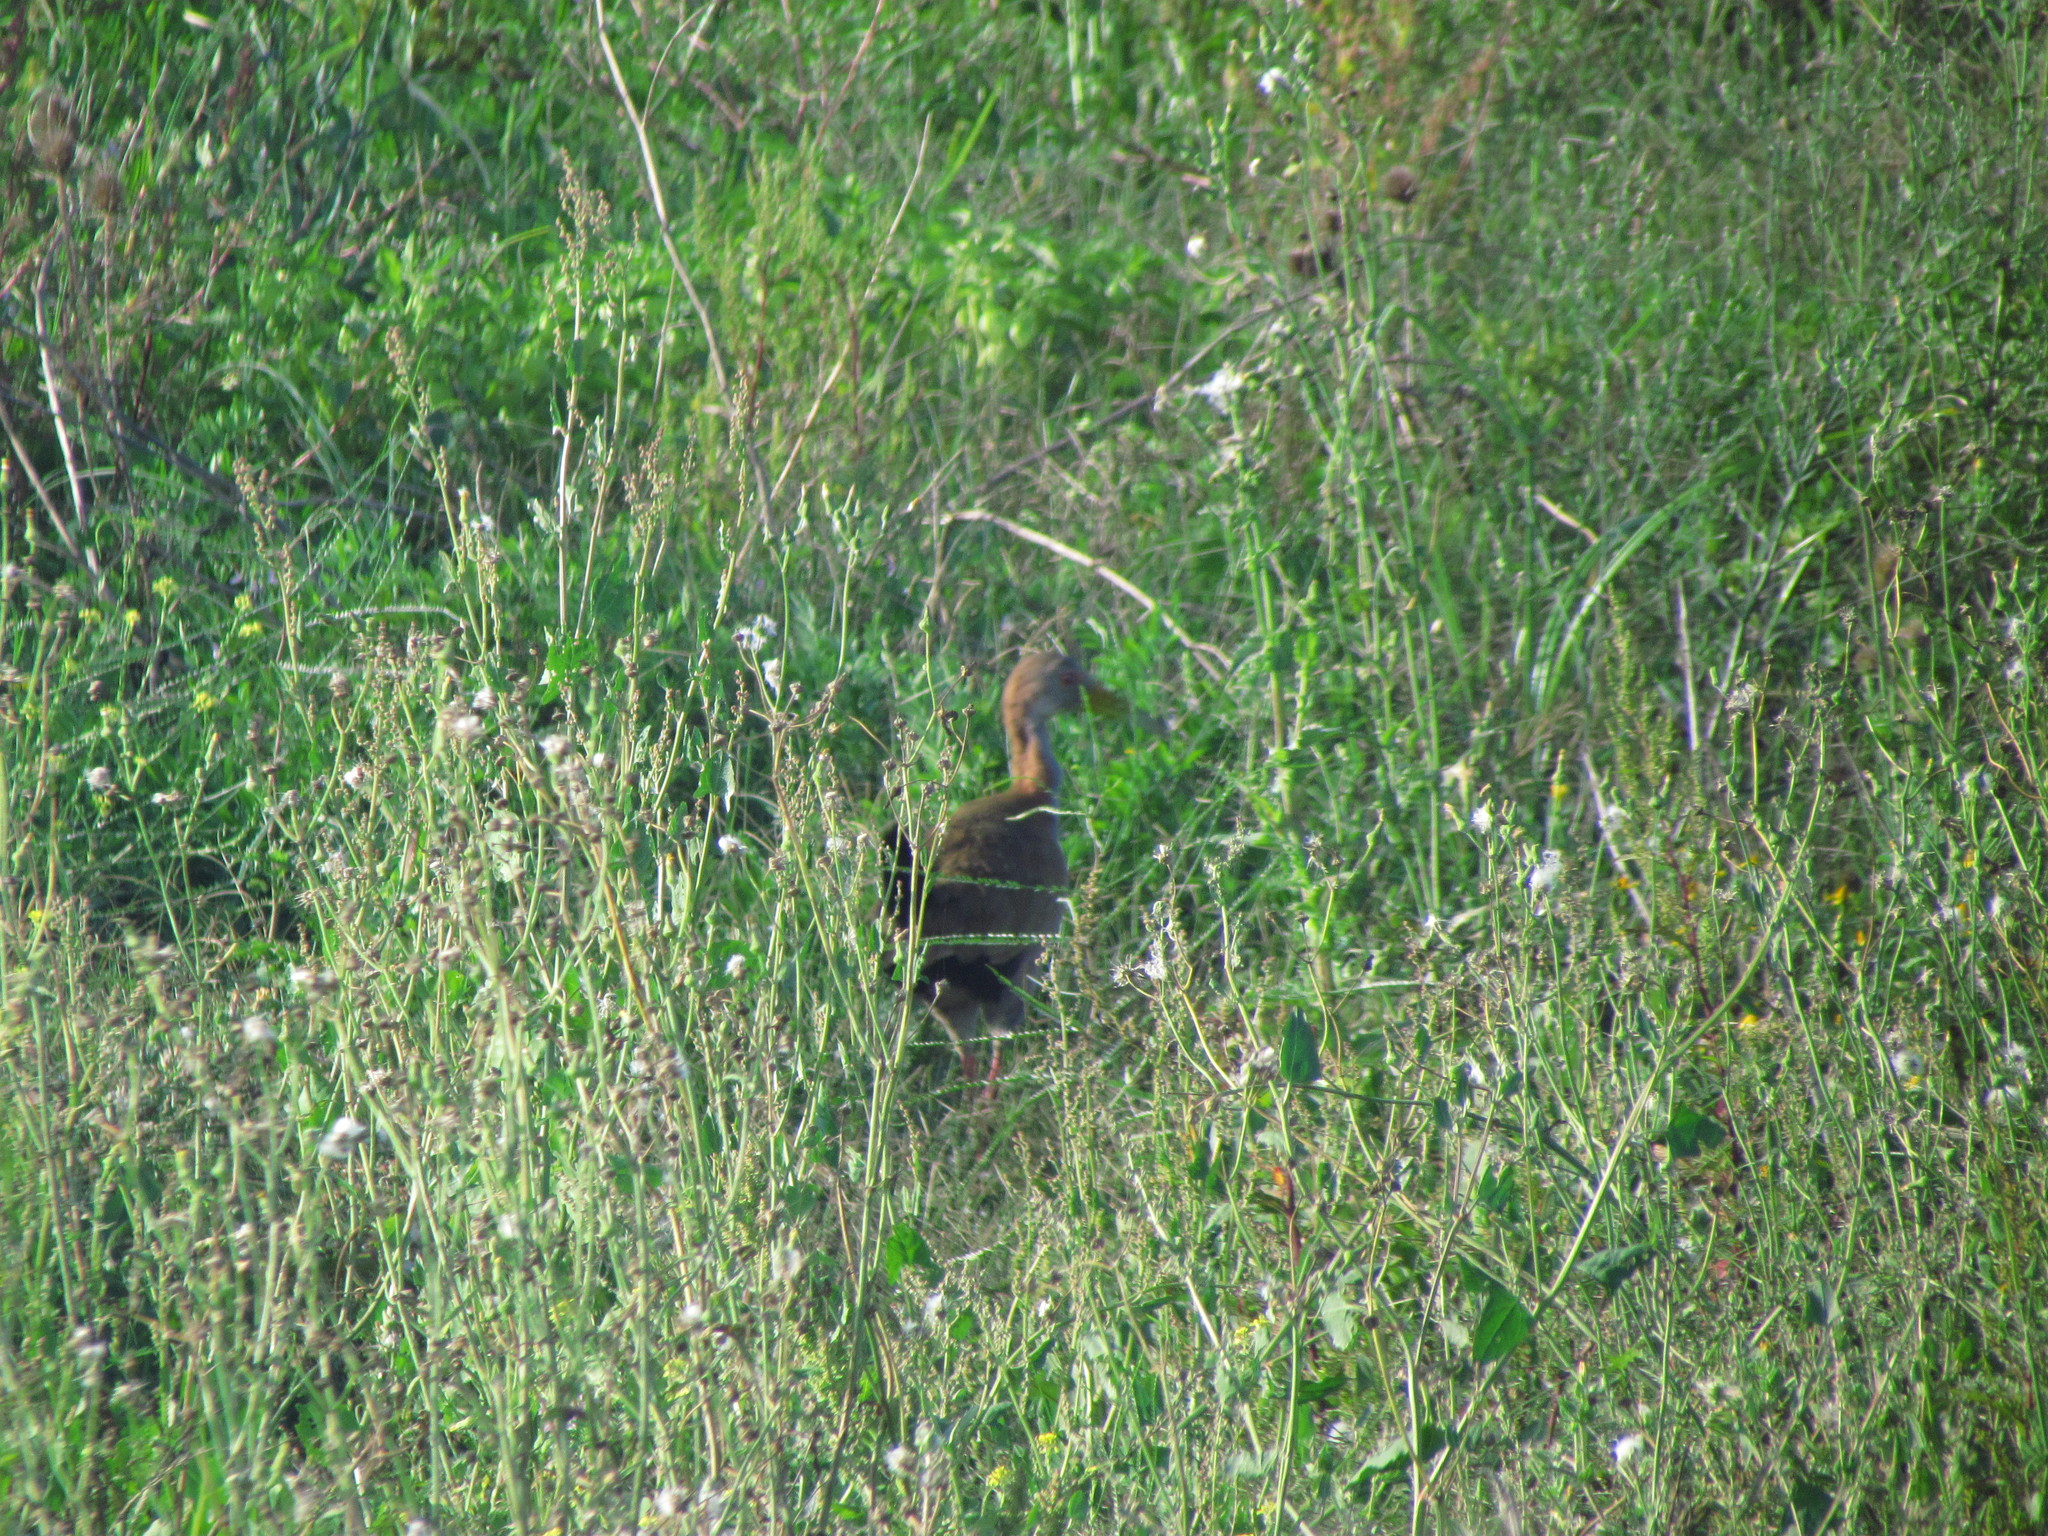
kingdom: Animalia
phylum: Chordata
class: Aves
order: Gruiformes
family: Rallidae
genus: Aramides
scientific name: Aramides ypecaha
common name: Giant wood rail
